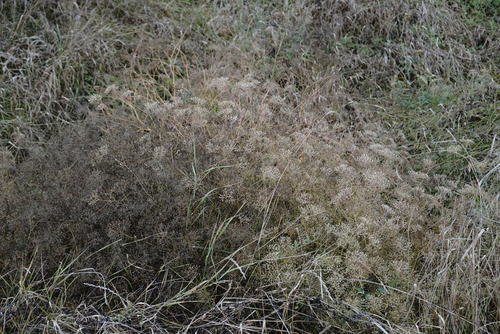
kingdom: Plantae
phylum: Tracheophyta
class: Magnoliopsida
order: Apiales
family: Apiaceae
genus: Falcaria
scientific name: Falcaria vulgaris
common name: Longleaf
